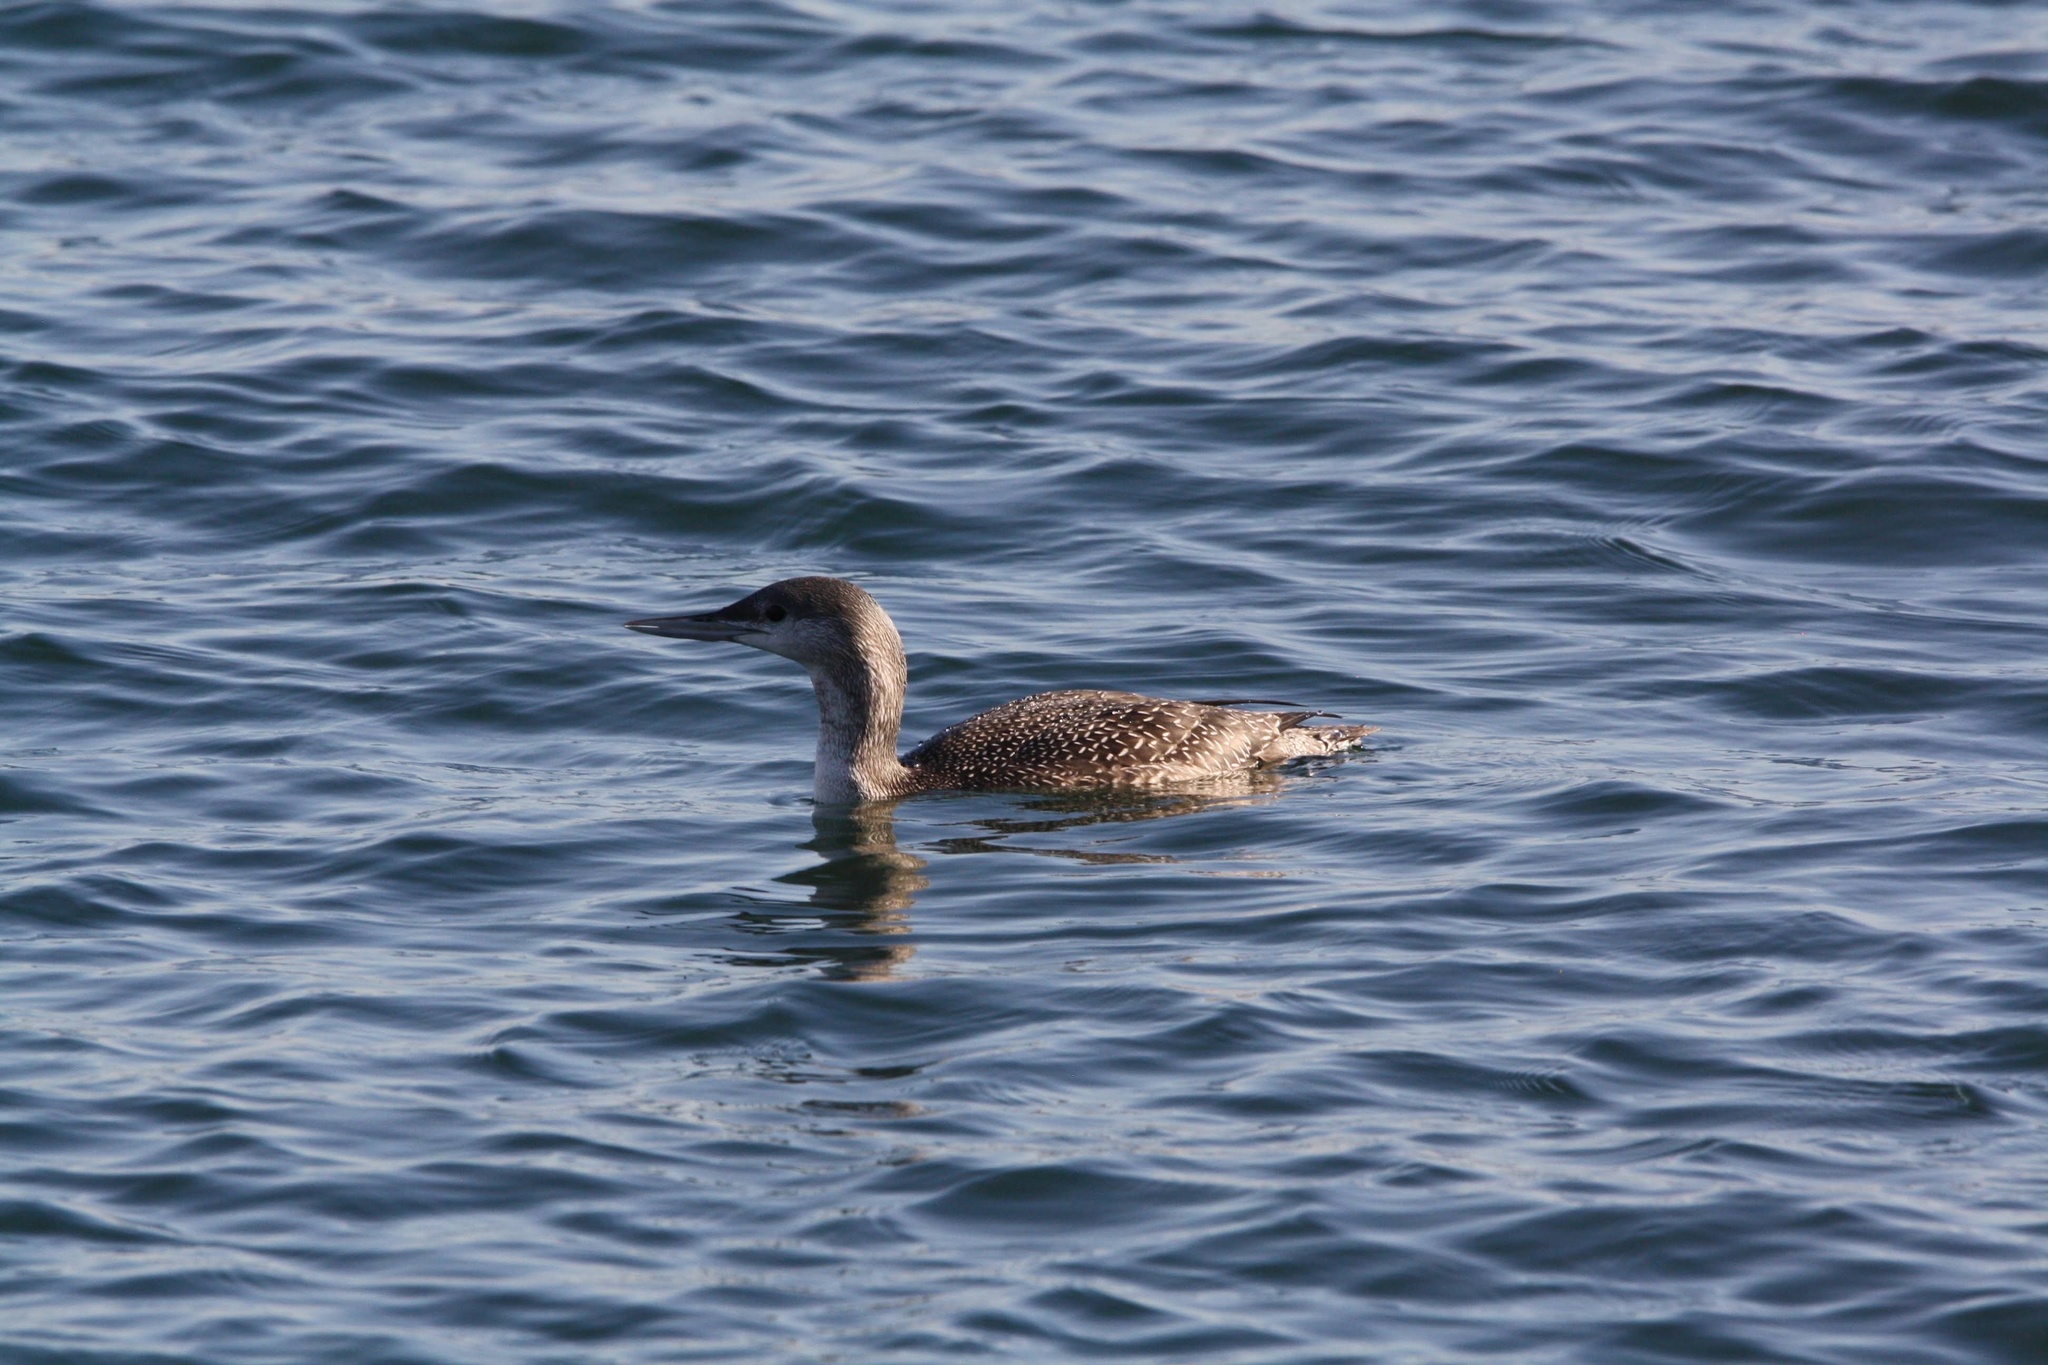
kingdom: Animalia
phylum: Chordata
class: Aves
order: Gaviiformes
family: Gaviidae
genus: Gavia
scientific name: Gavia stellata
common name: Red-throated loon
